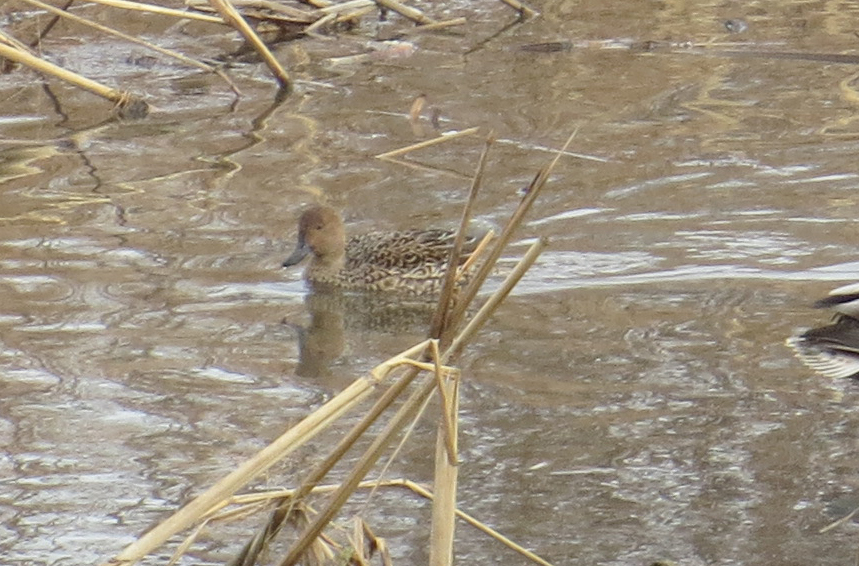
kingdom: Animalia
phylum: Chordata
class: Aves
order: Anseriformes
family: Anatidae
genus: Anas
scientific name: Anas acuta
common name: Northern pintail
